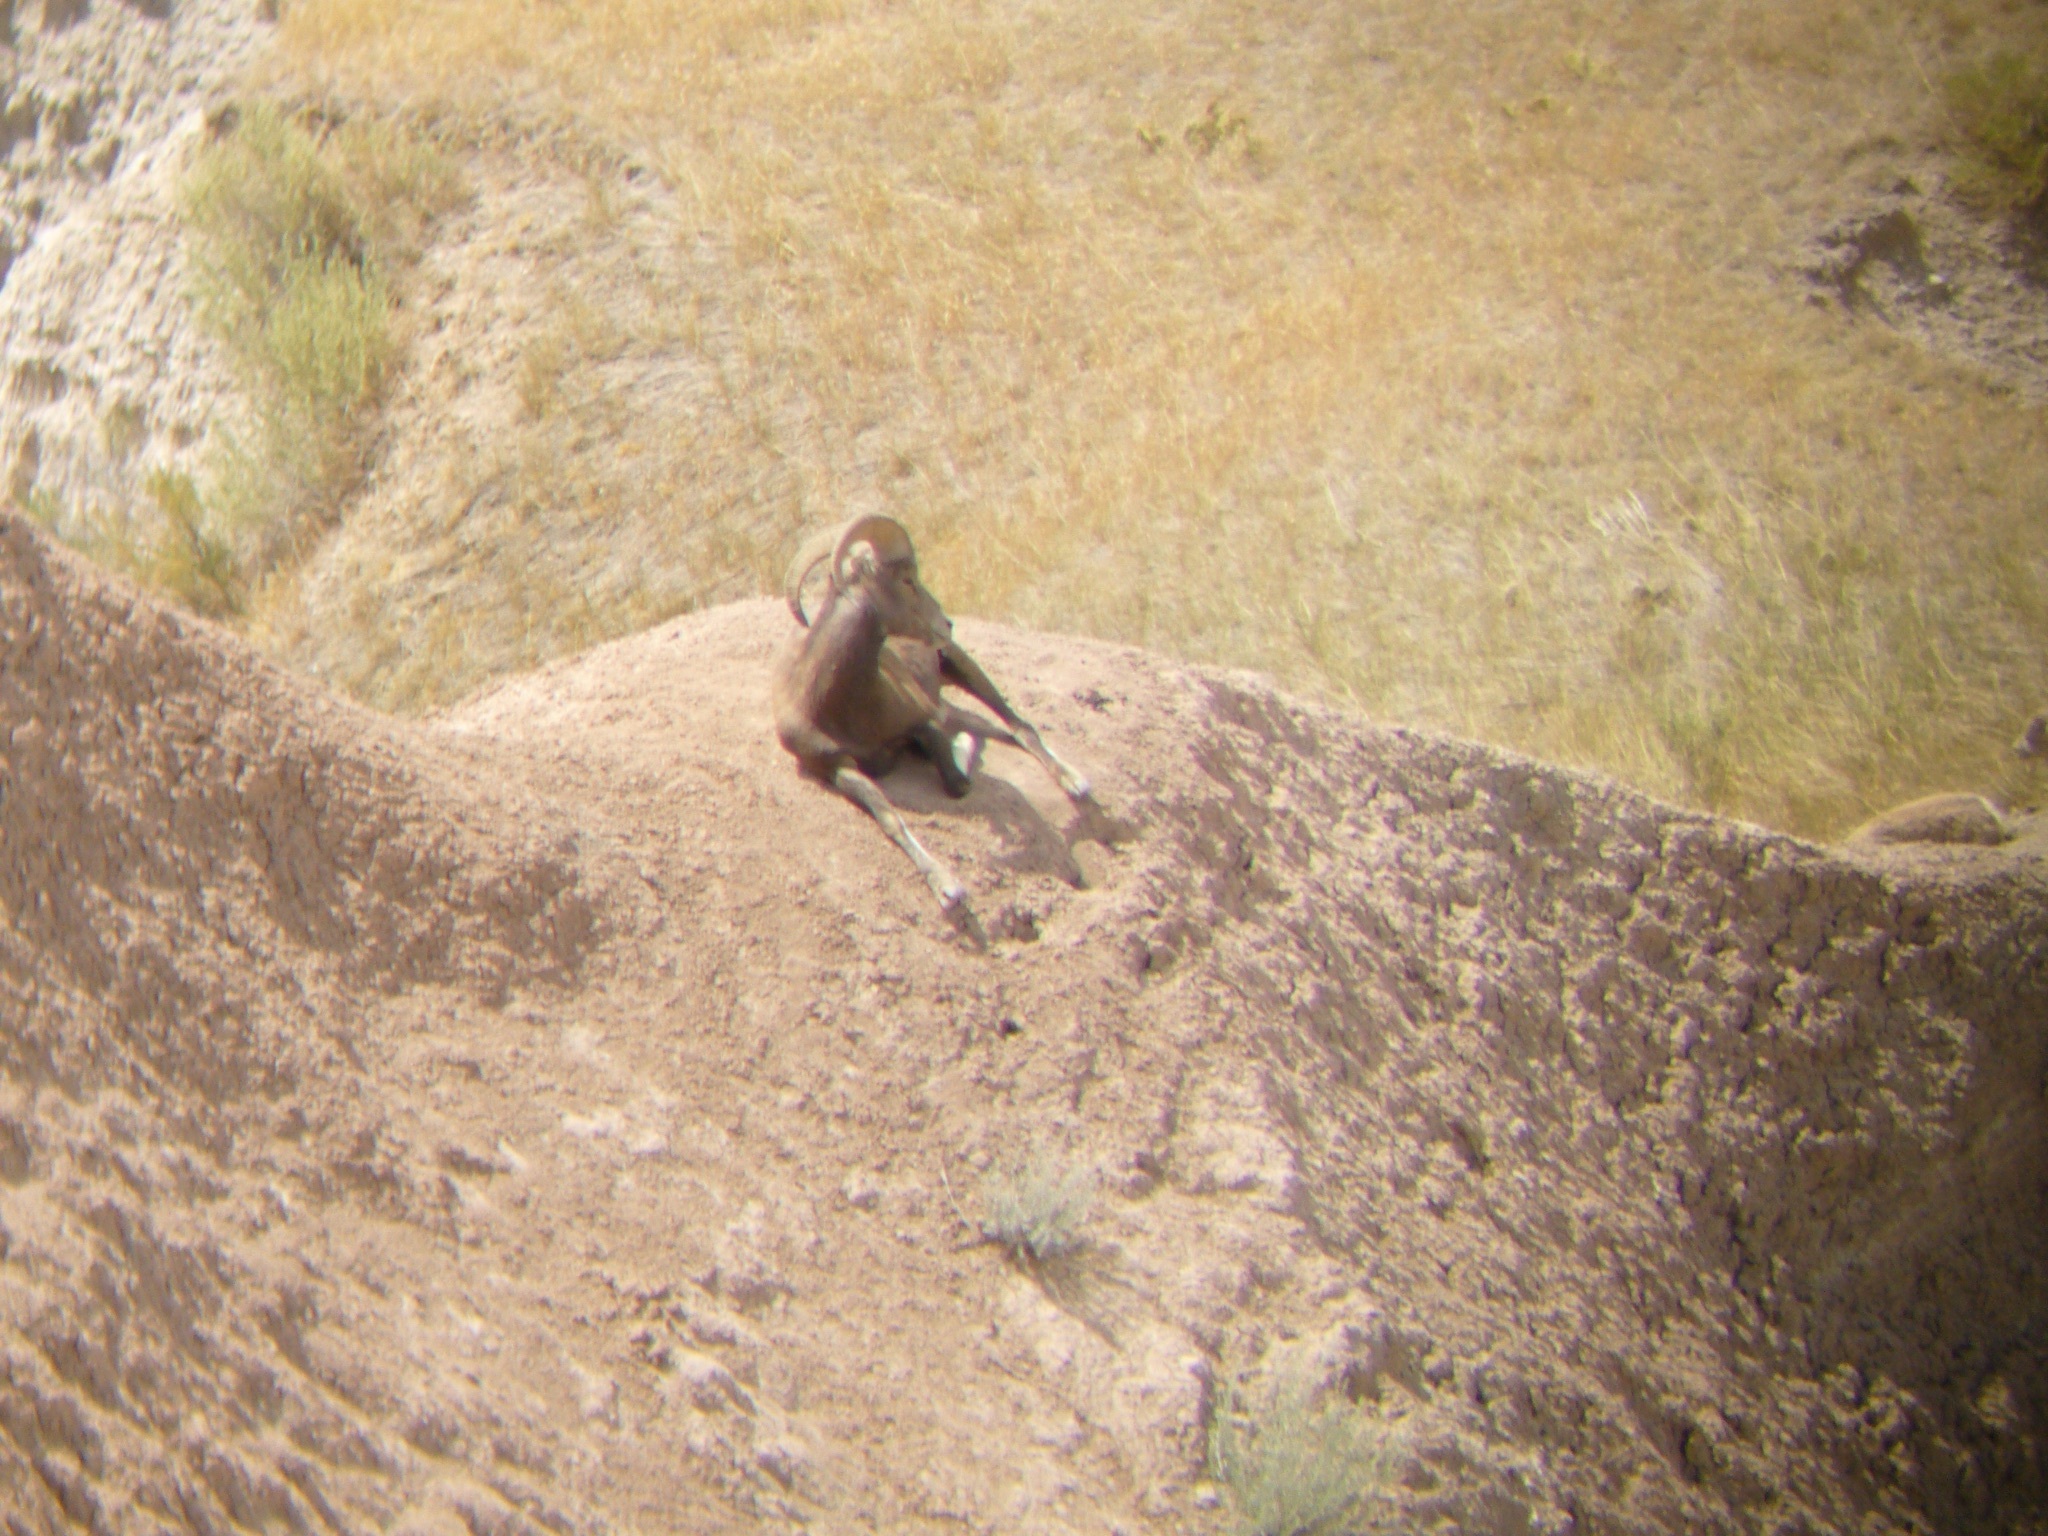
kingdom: Animalia
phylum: Chordata
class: Mammalia
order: Artiodactyla
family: Bovidae
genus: Ovis
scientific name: Ovis canadensis
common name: Bighorn sheep
